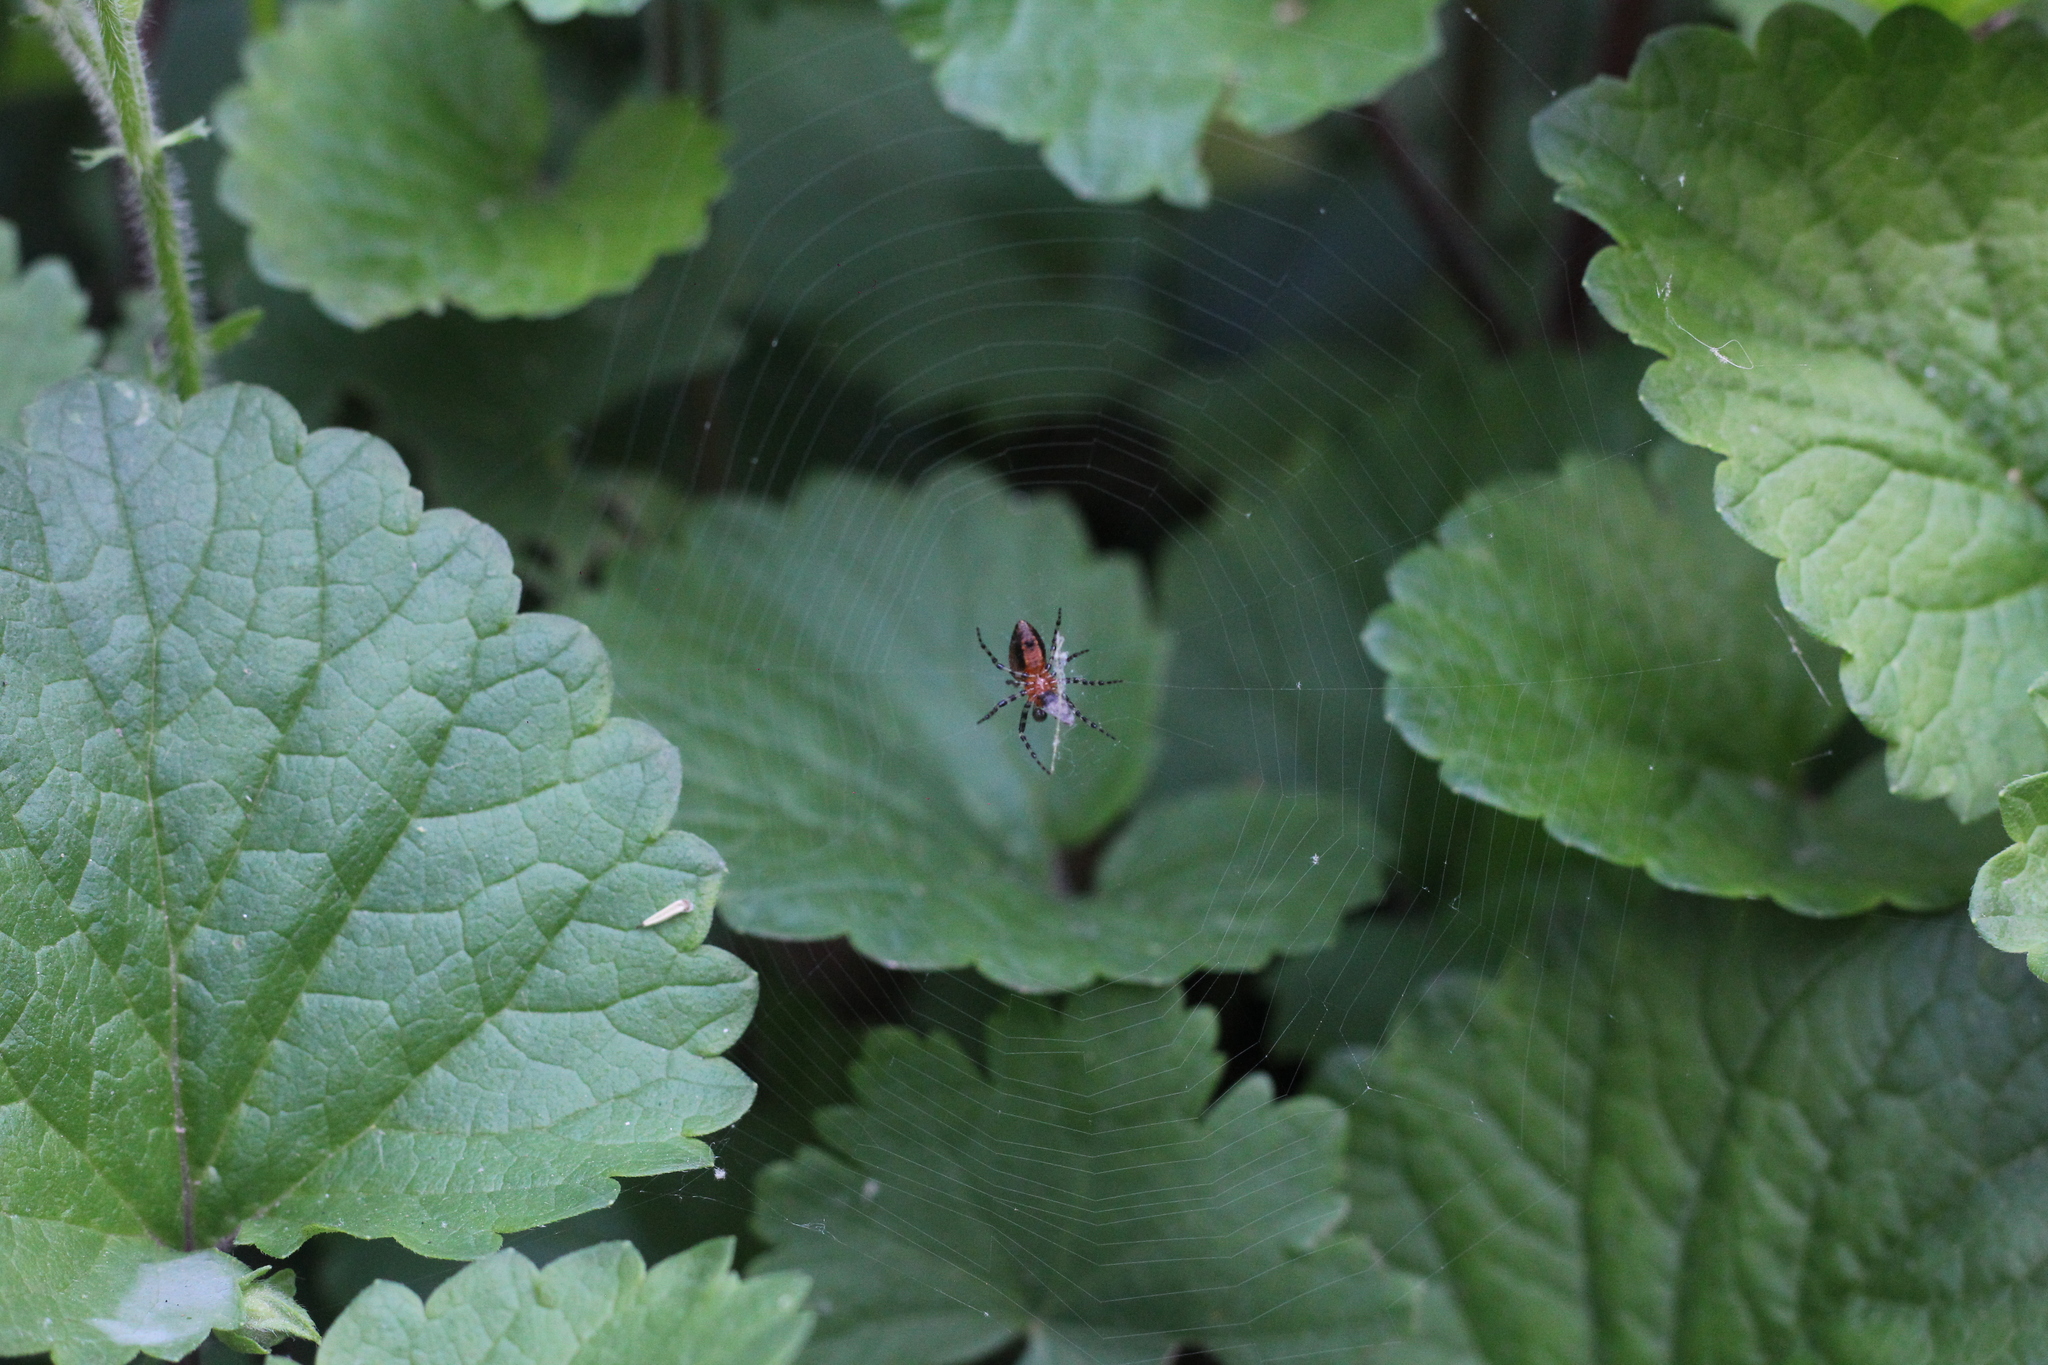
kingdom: Animalia
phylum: Arthropoda
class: Arachnida
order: Araneae
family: Araneidae
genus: Alpaida
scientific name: Alpaida gallardoi
